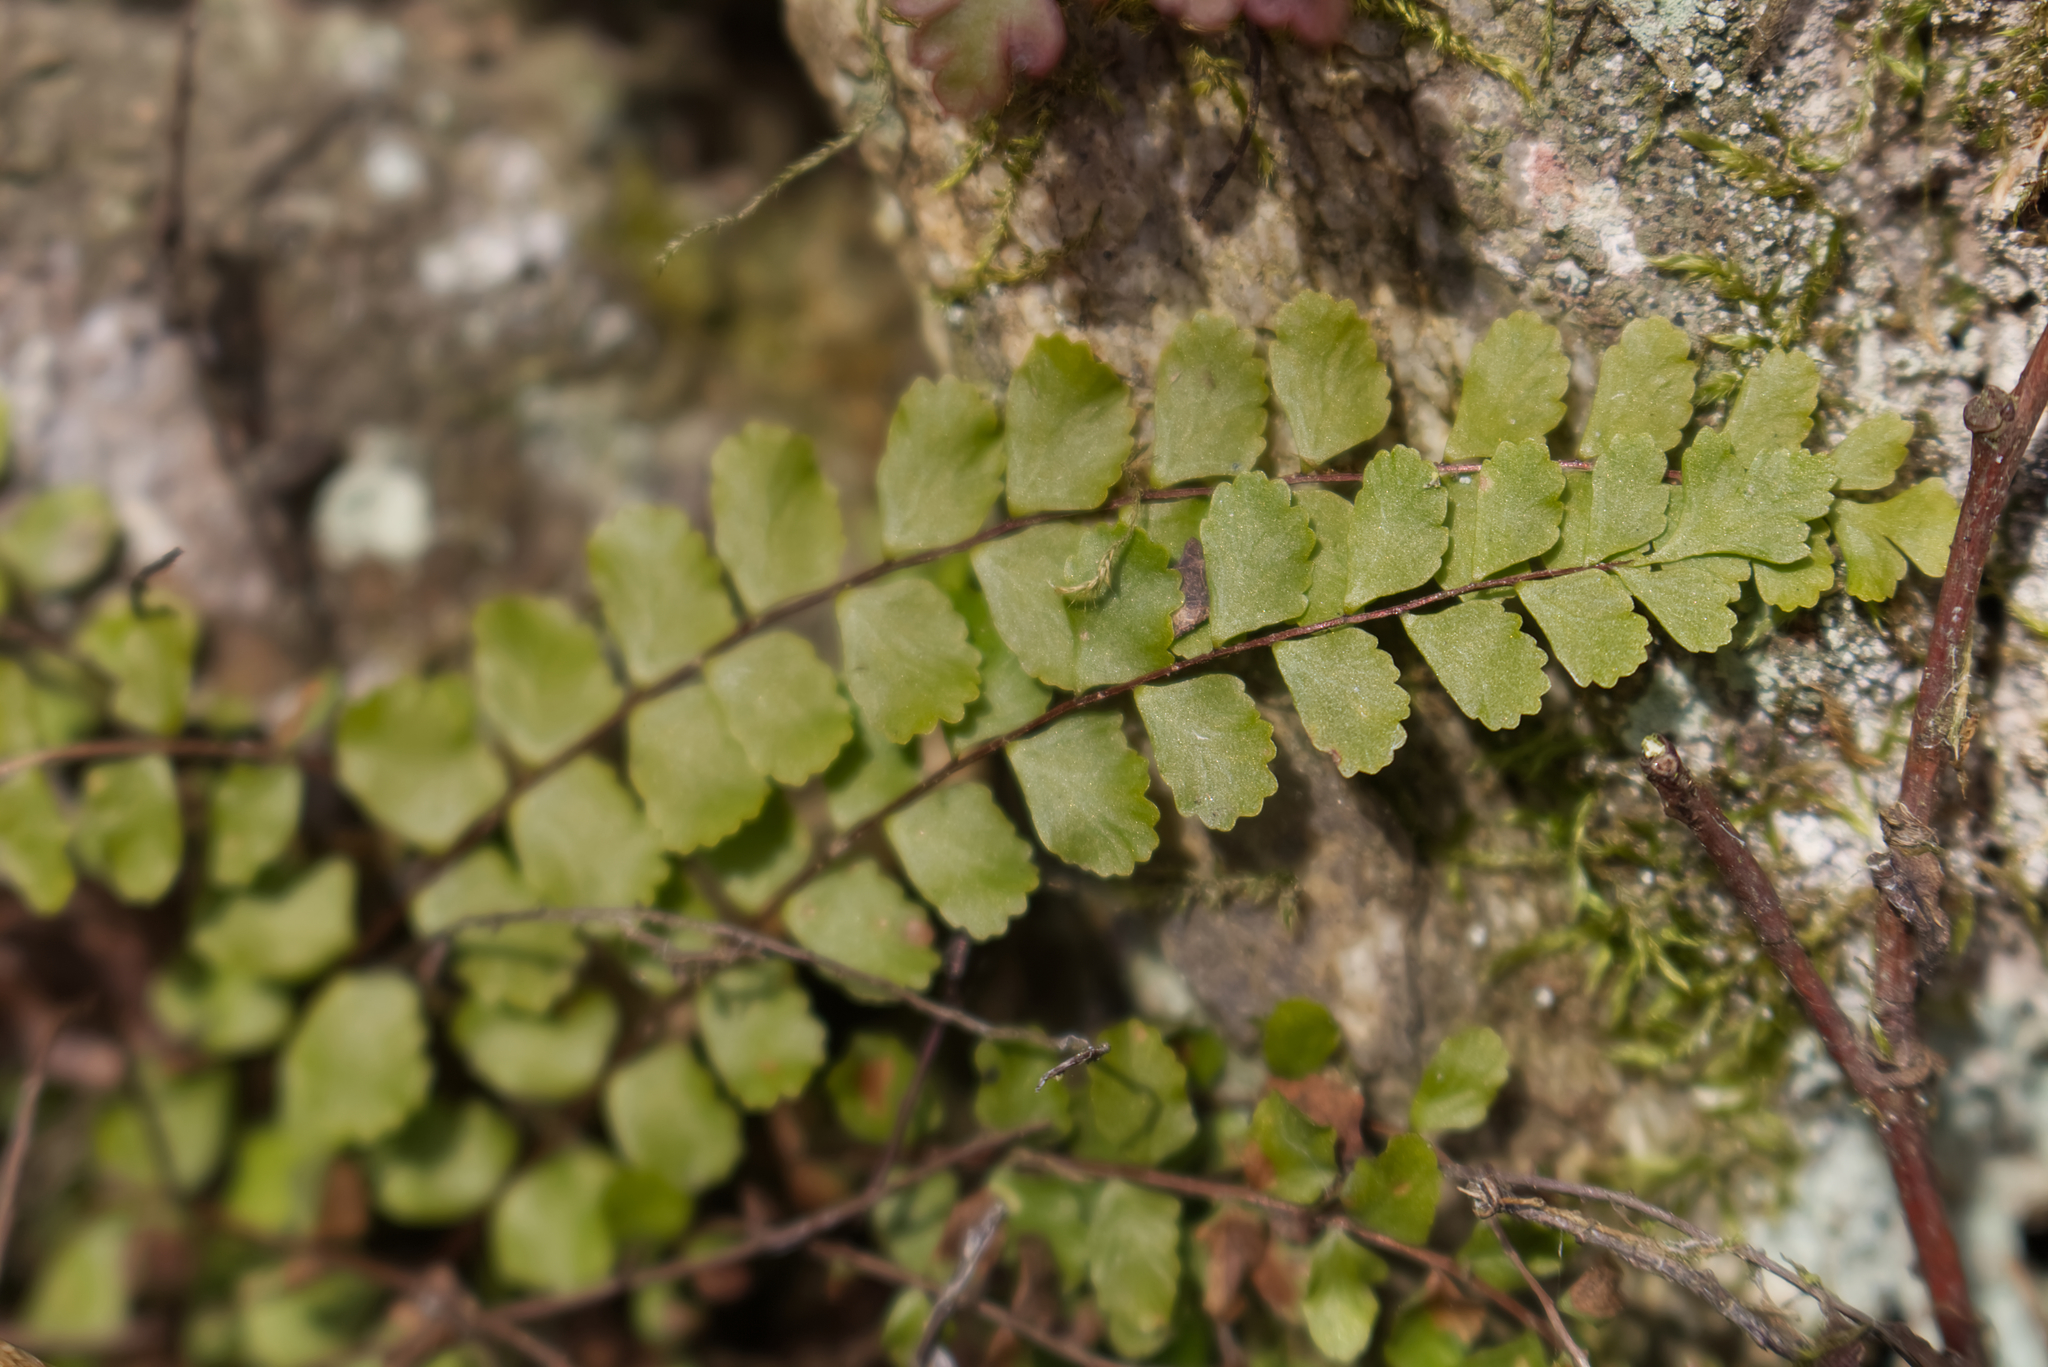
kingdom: Plantae
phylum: Tracheophyta
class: Polypodiopsida
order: Polypodiales
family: Aspleniaceae
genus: Asplenium
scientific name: Asplenium trichomanes
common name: Maidenhair spleenwort
